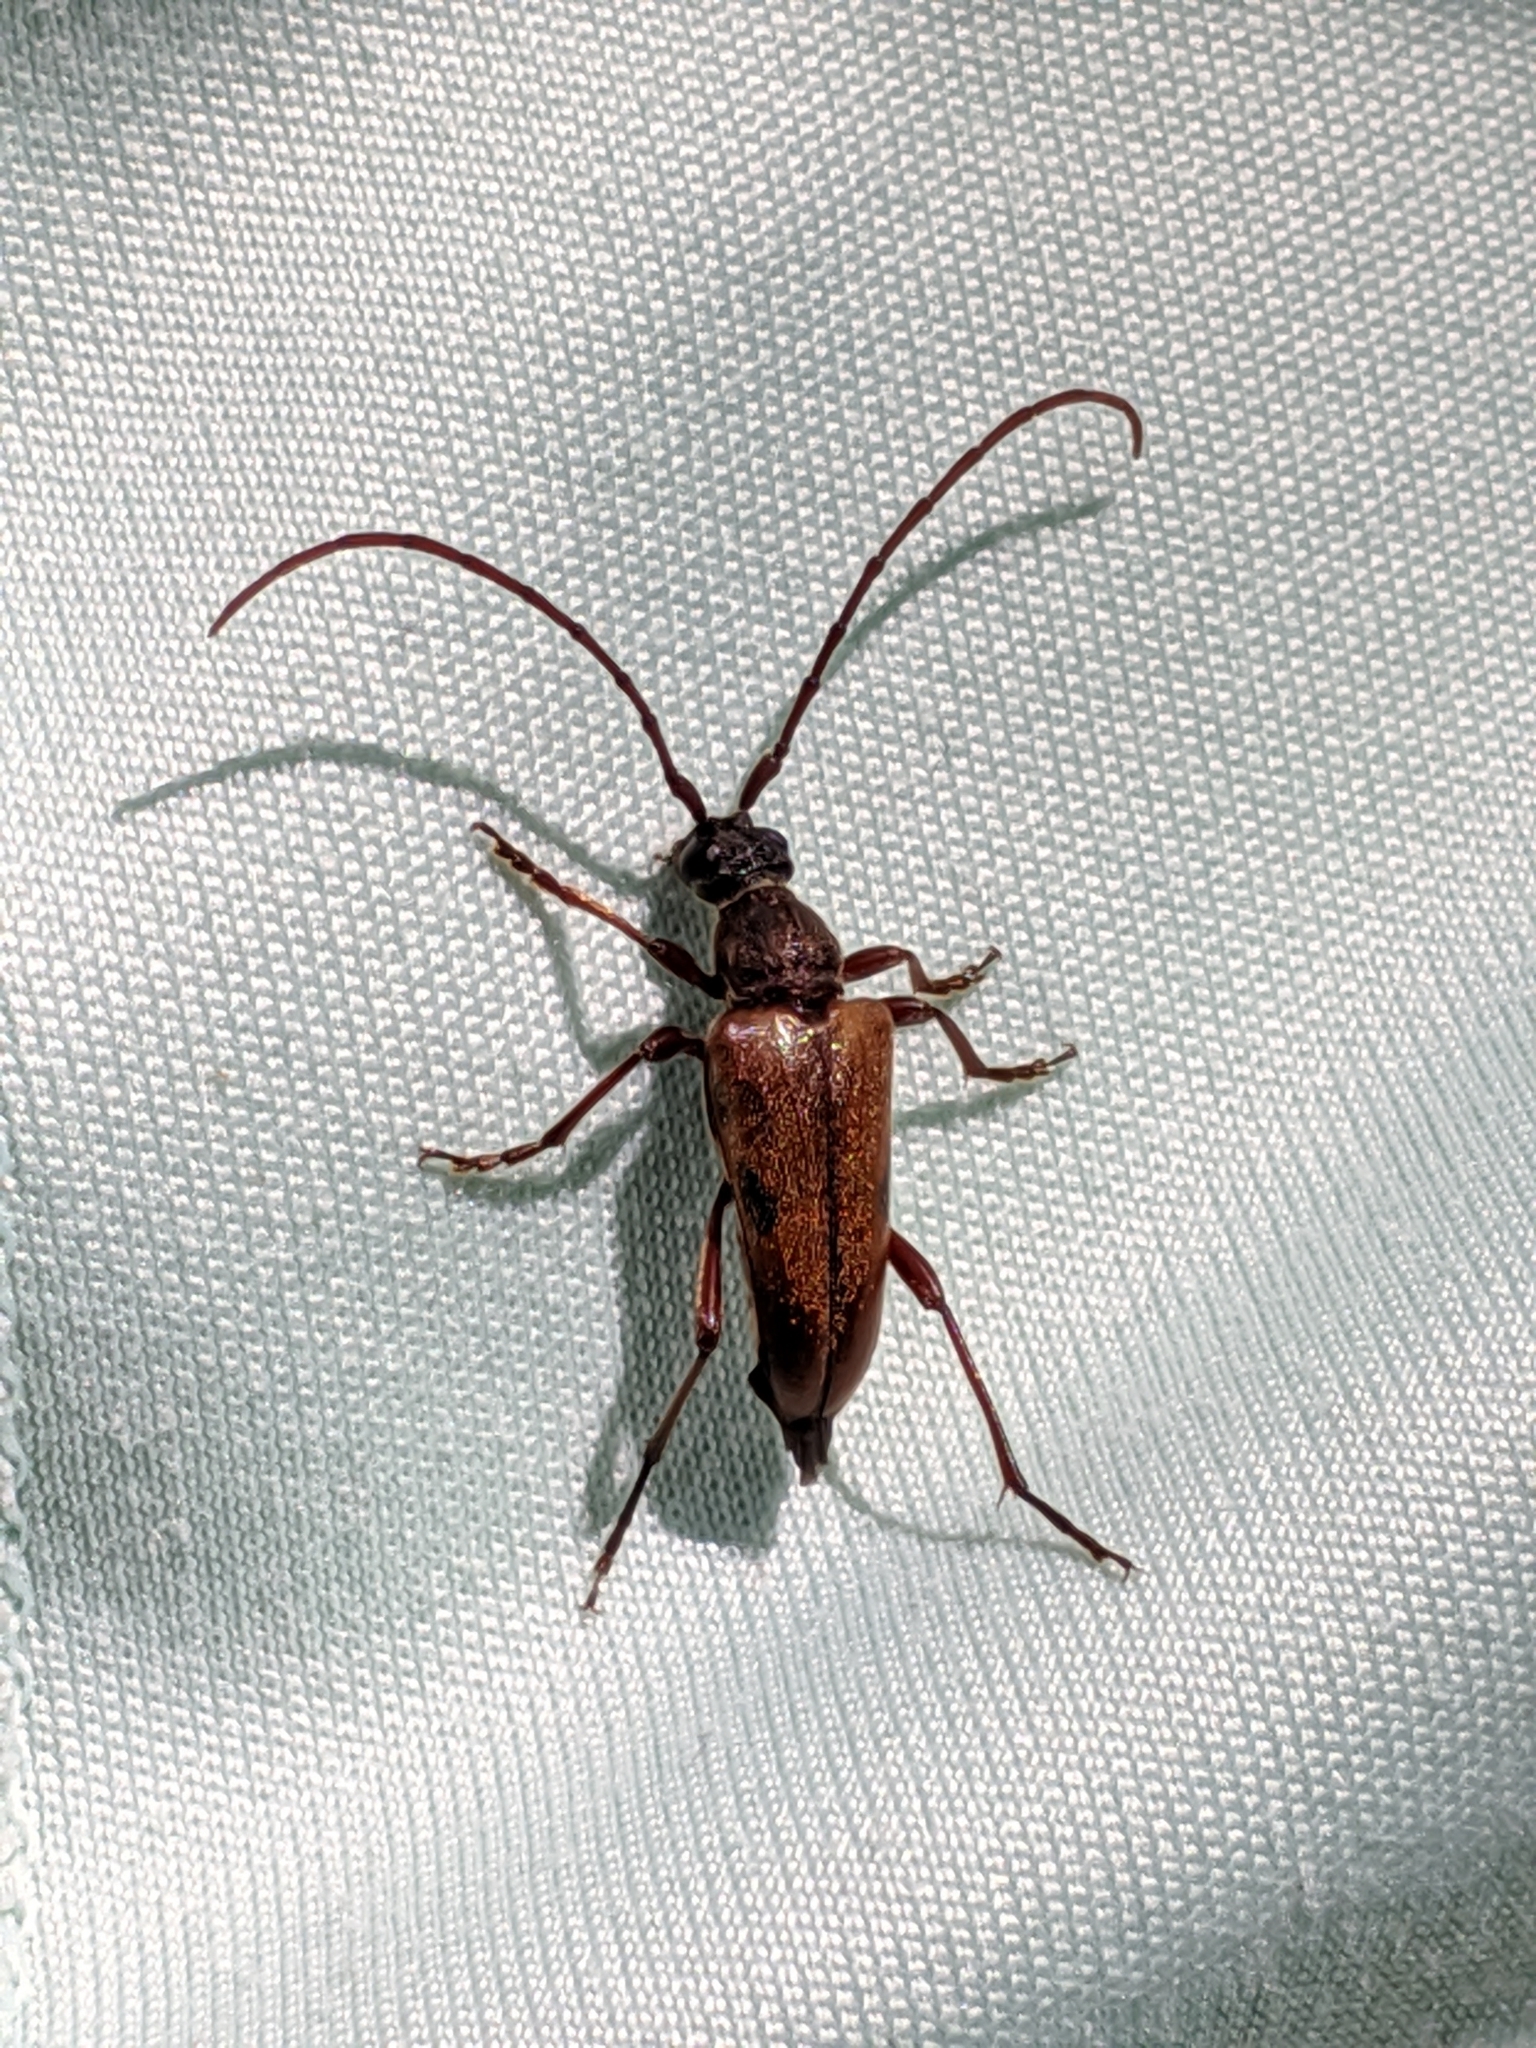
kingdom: Animalia
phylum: Arthropoda
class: Insecta
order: Coleoptera
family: Cerambycidae
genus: Lepturopsis
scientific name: Lepturopsis biforis
